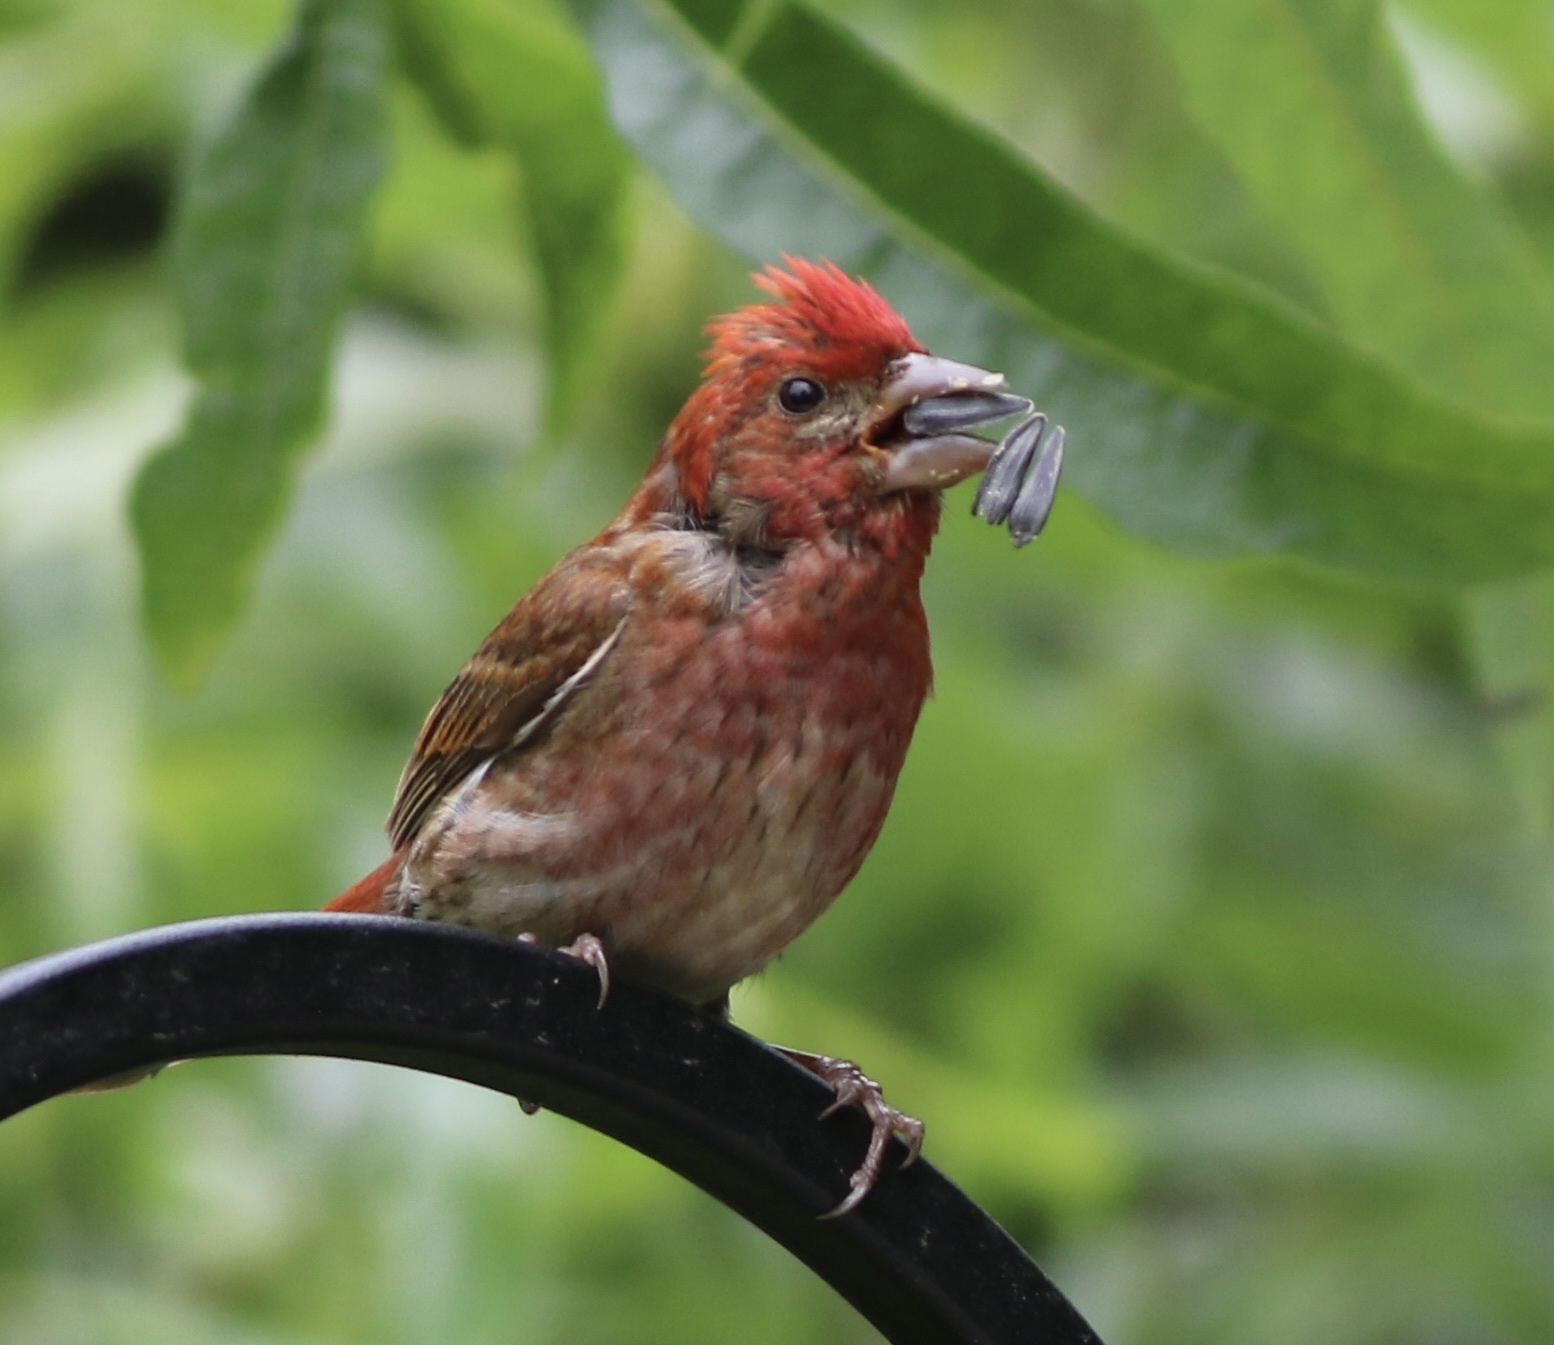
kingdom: Animalia
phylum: Chordata
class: Aves
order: Passeriformes
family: Fringillidae
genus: Haemorhous
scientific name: Haemorhous purpureus
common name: Purple finch
